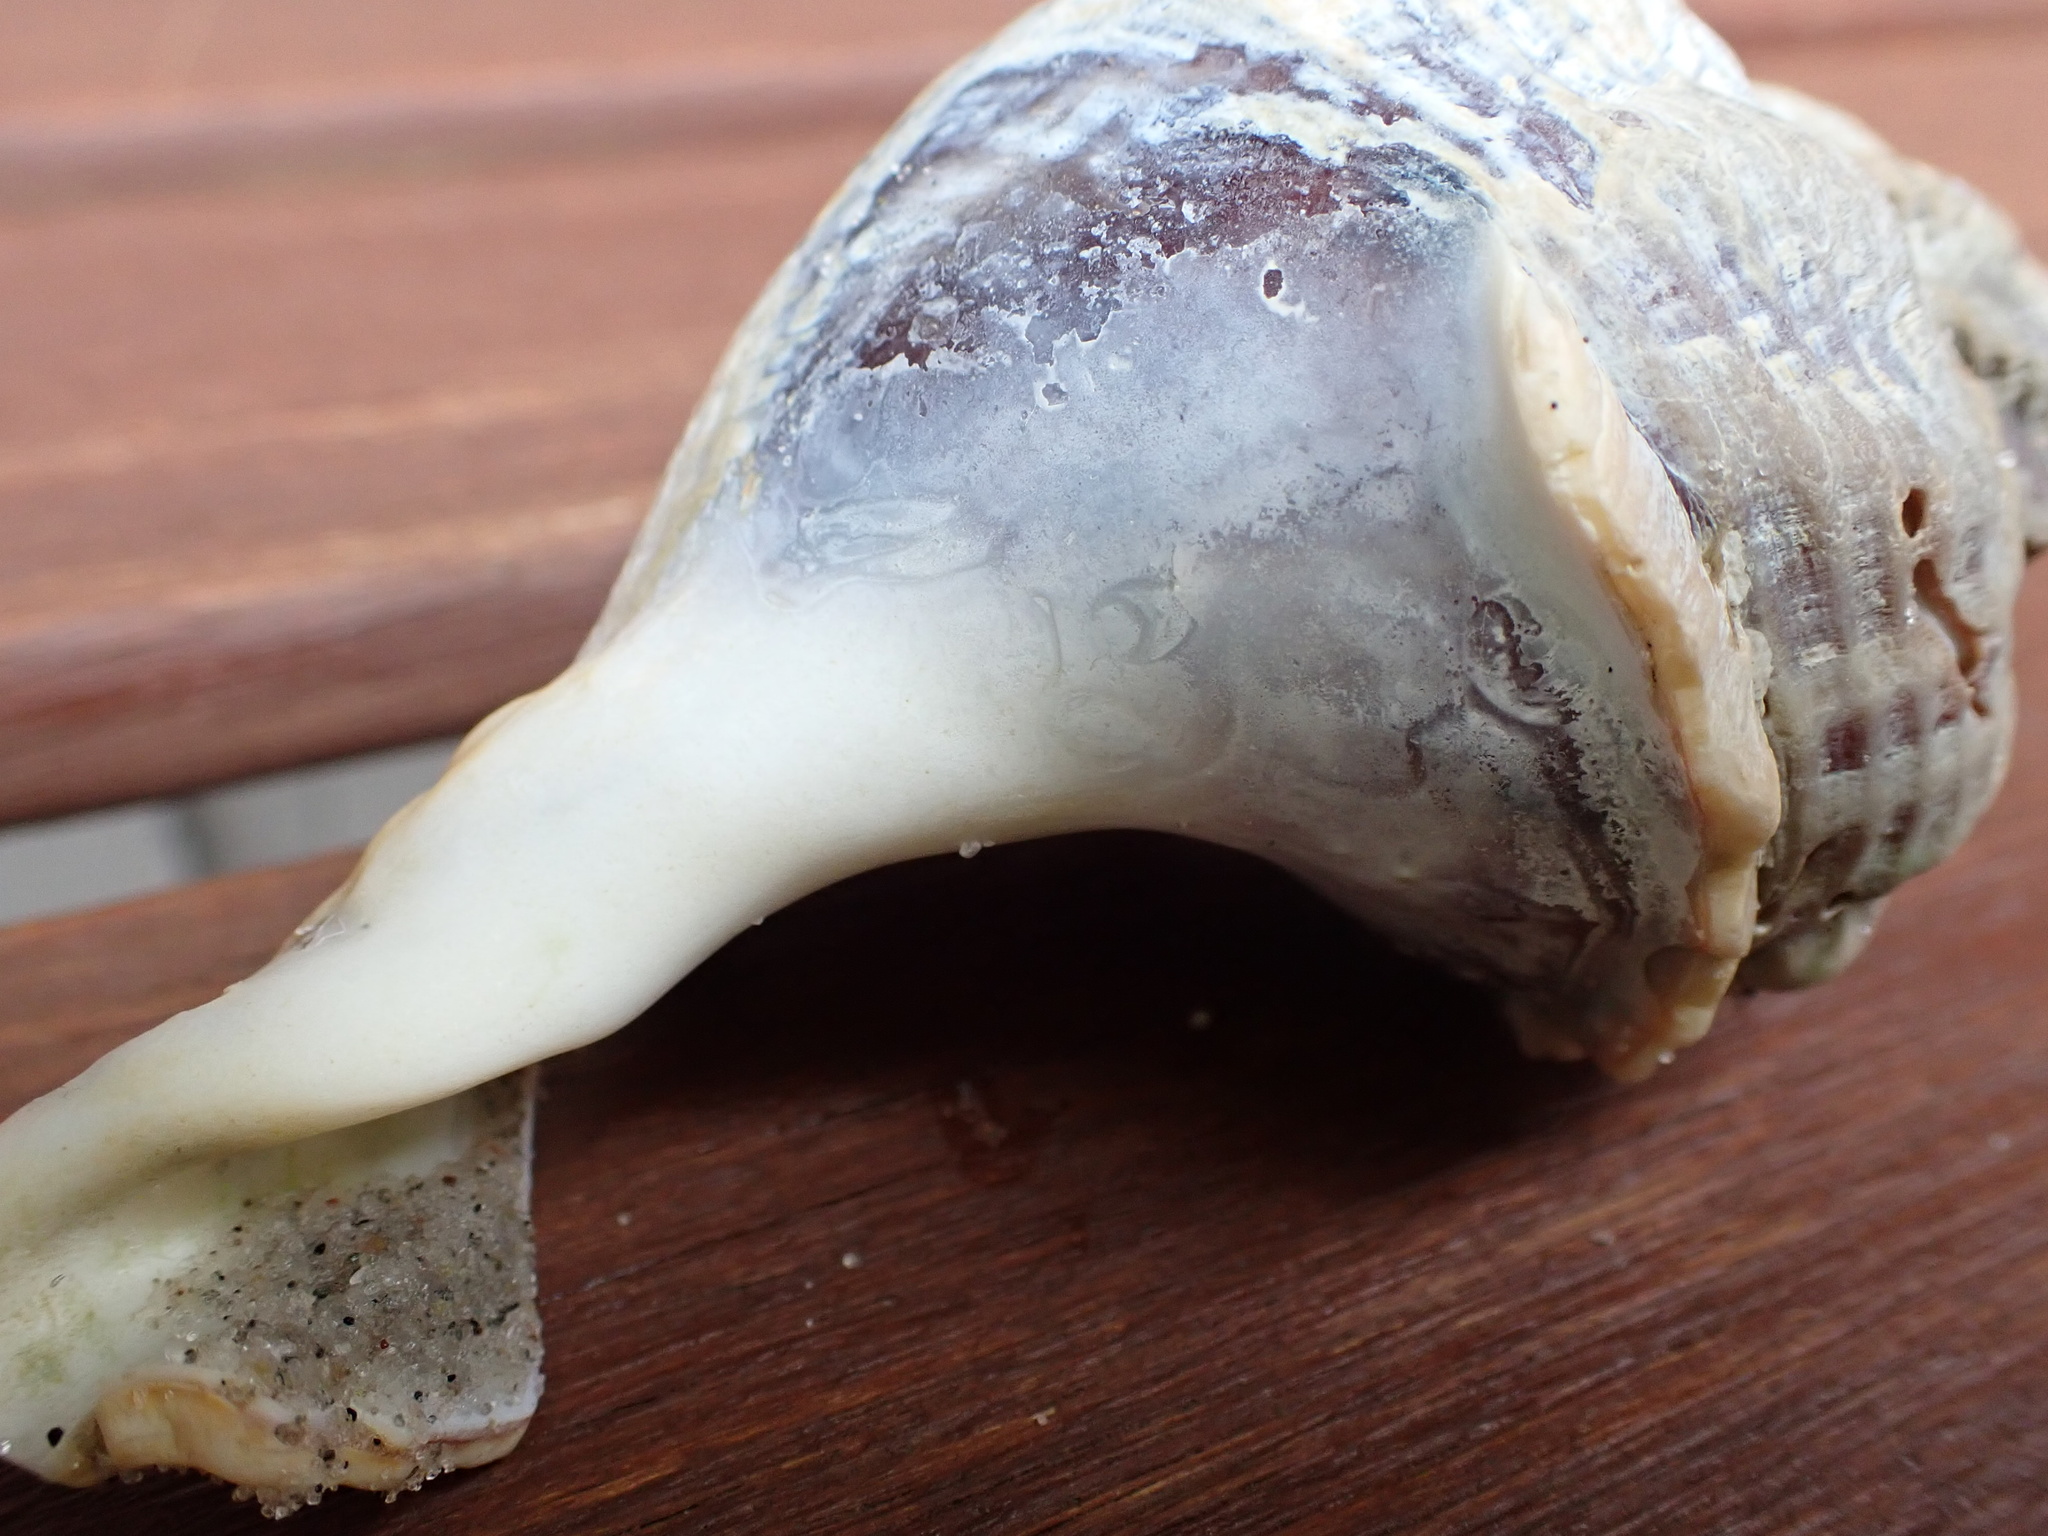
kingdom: Animalia
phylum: Mollusca
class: Gastropoda
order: Neogastropoda
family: Buccinidae
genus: Buccinum
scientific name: Buccinum undatum
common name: Common whelk
